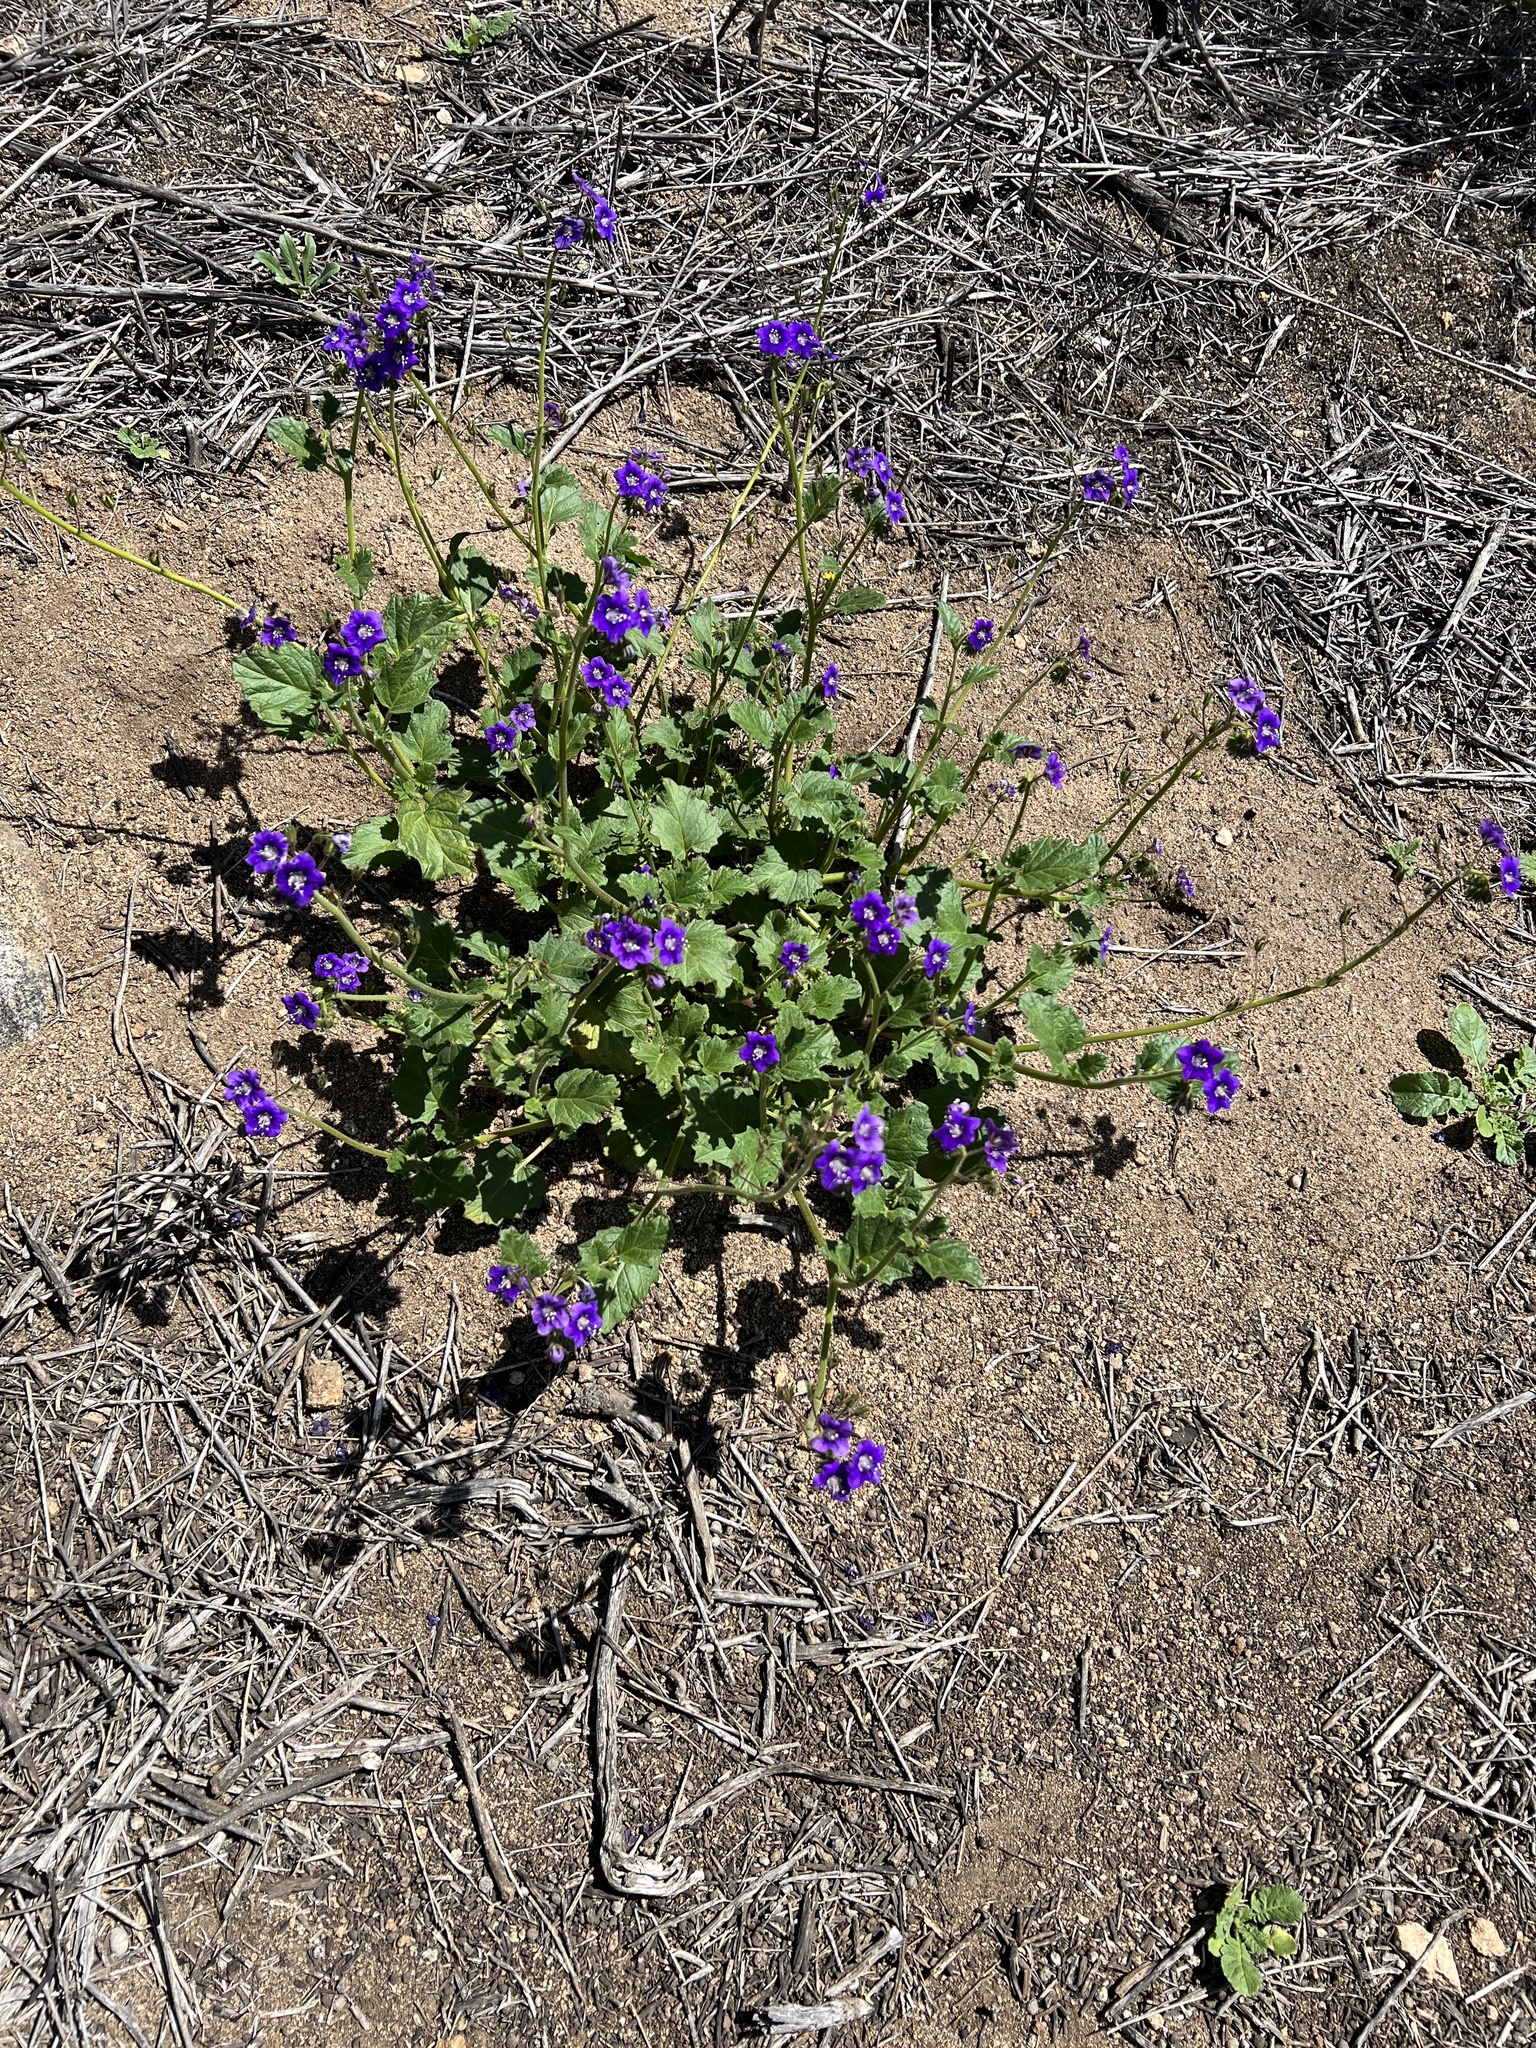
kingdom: Plantae
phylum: Tracheophyta
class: Magnoliopsida
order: Boraginales
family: Hydrophyllaceae
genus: Phacelia
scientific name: Phacelia parryi
